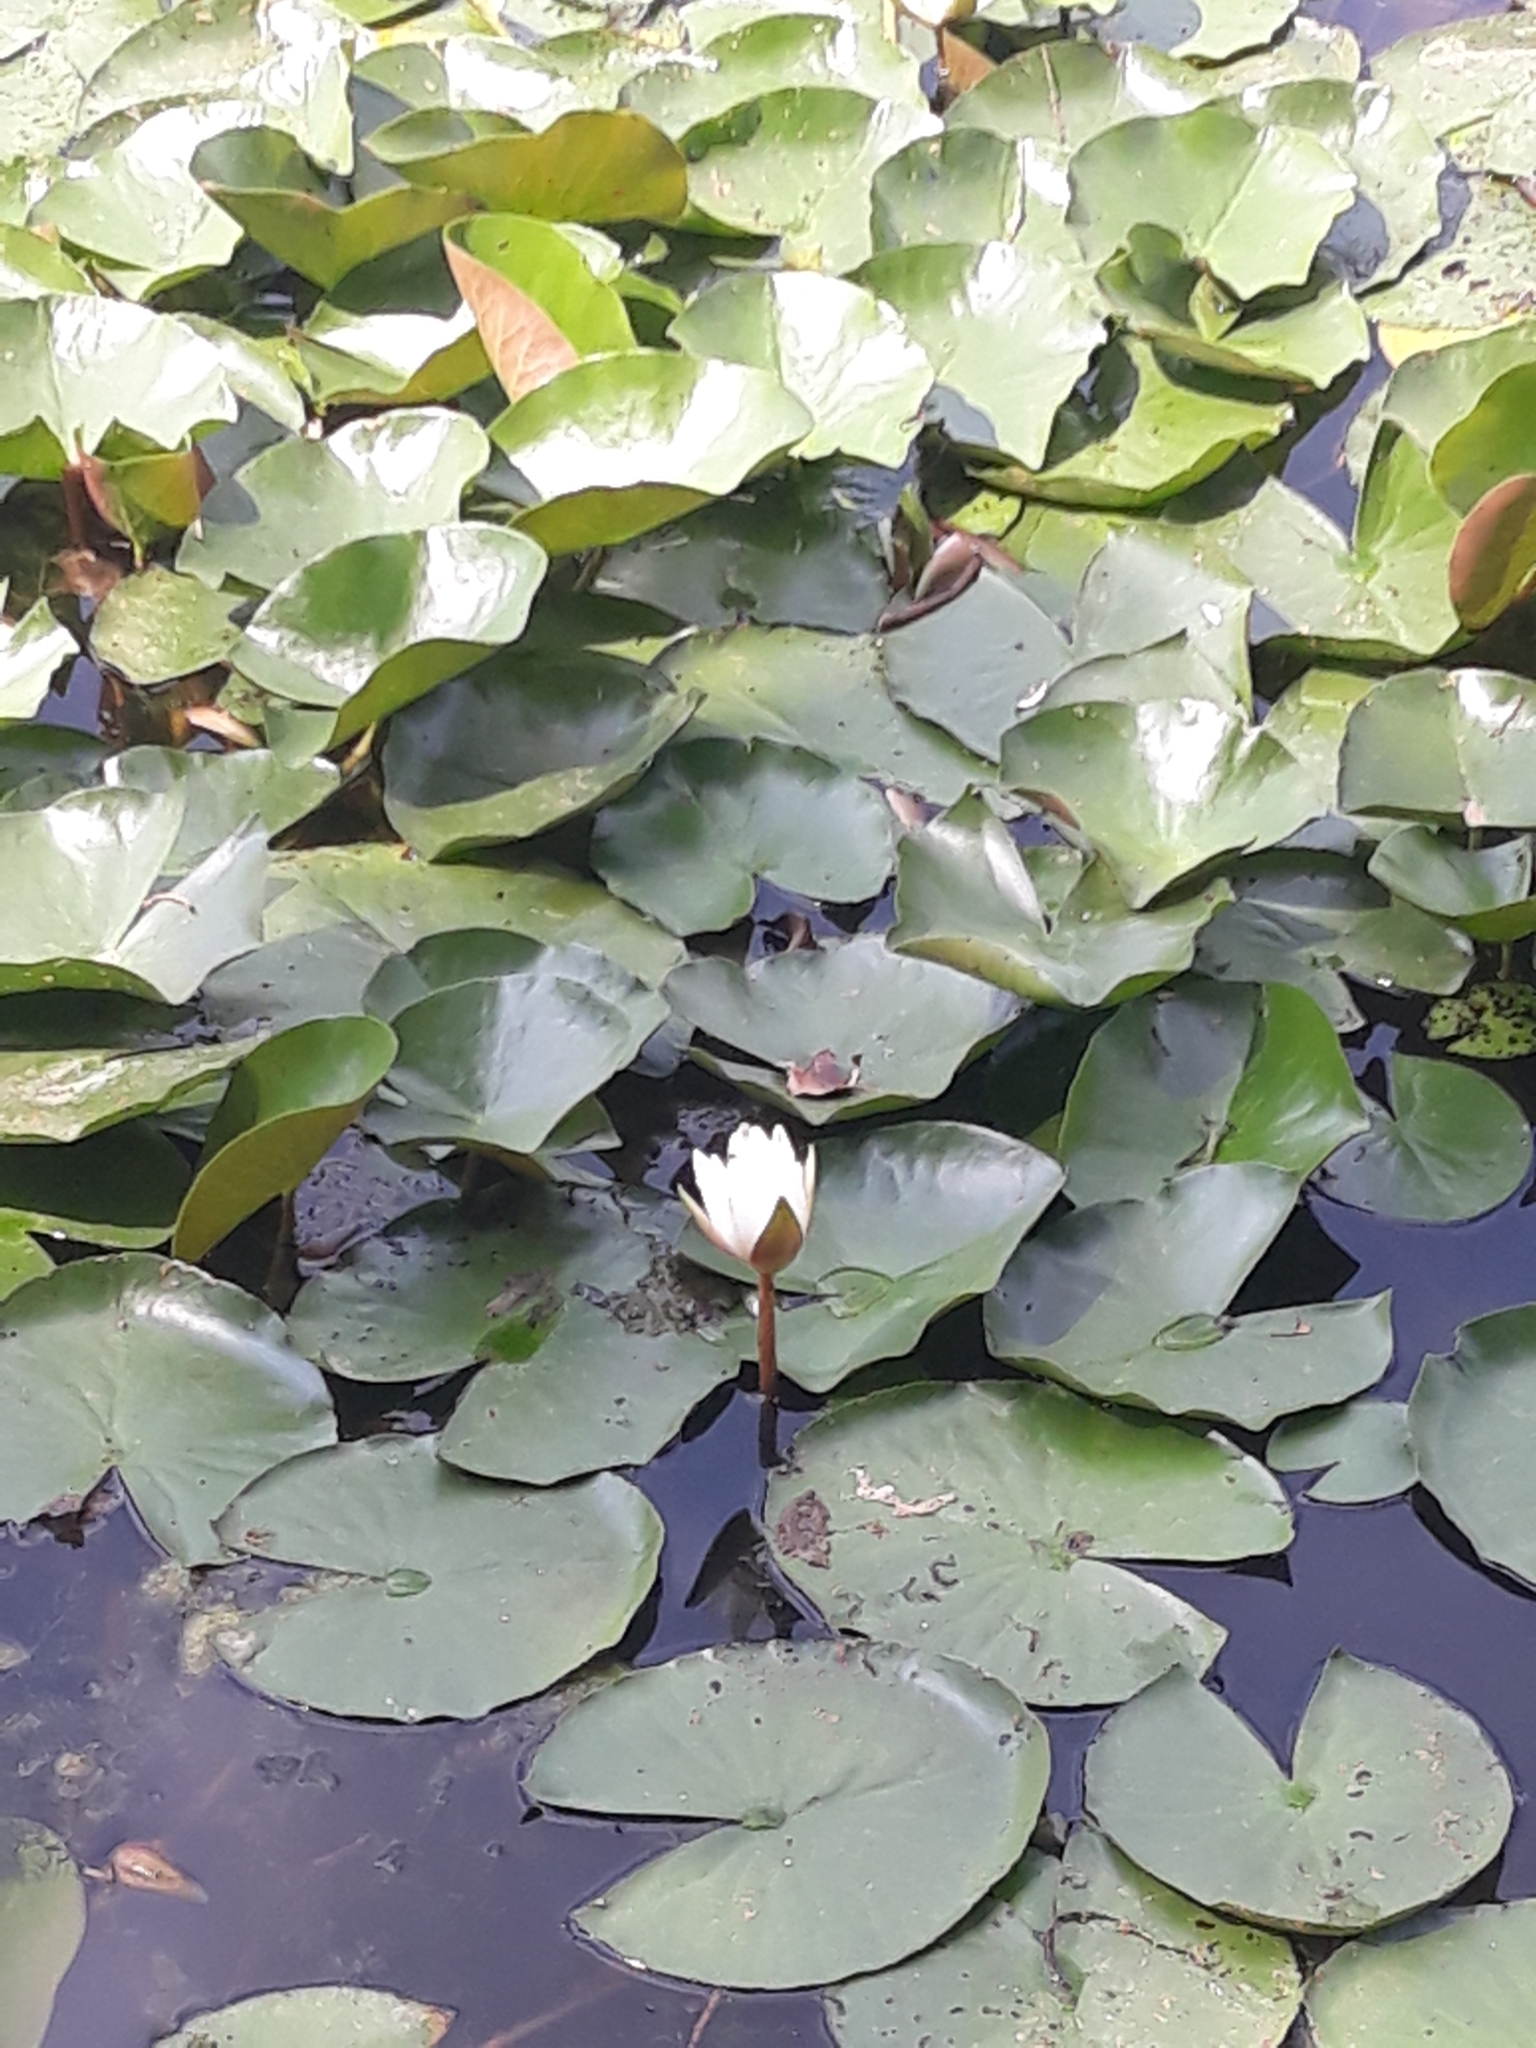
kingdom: Plantae
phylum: Tracheophyta
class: Magnoliopsida
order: Nymphaeales
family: Nymphaeaceae
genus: Nymphaea
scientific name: Nymphaea alba
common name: White water-lily
